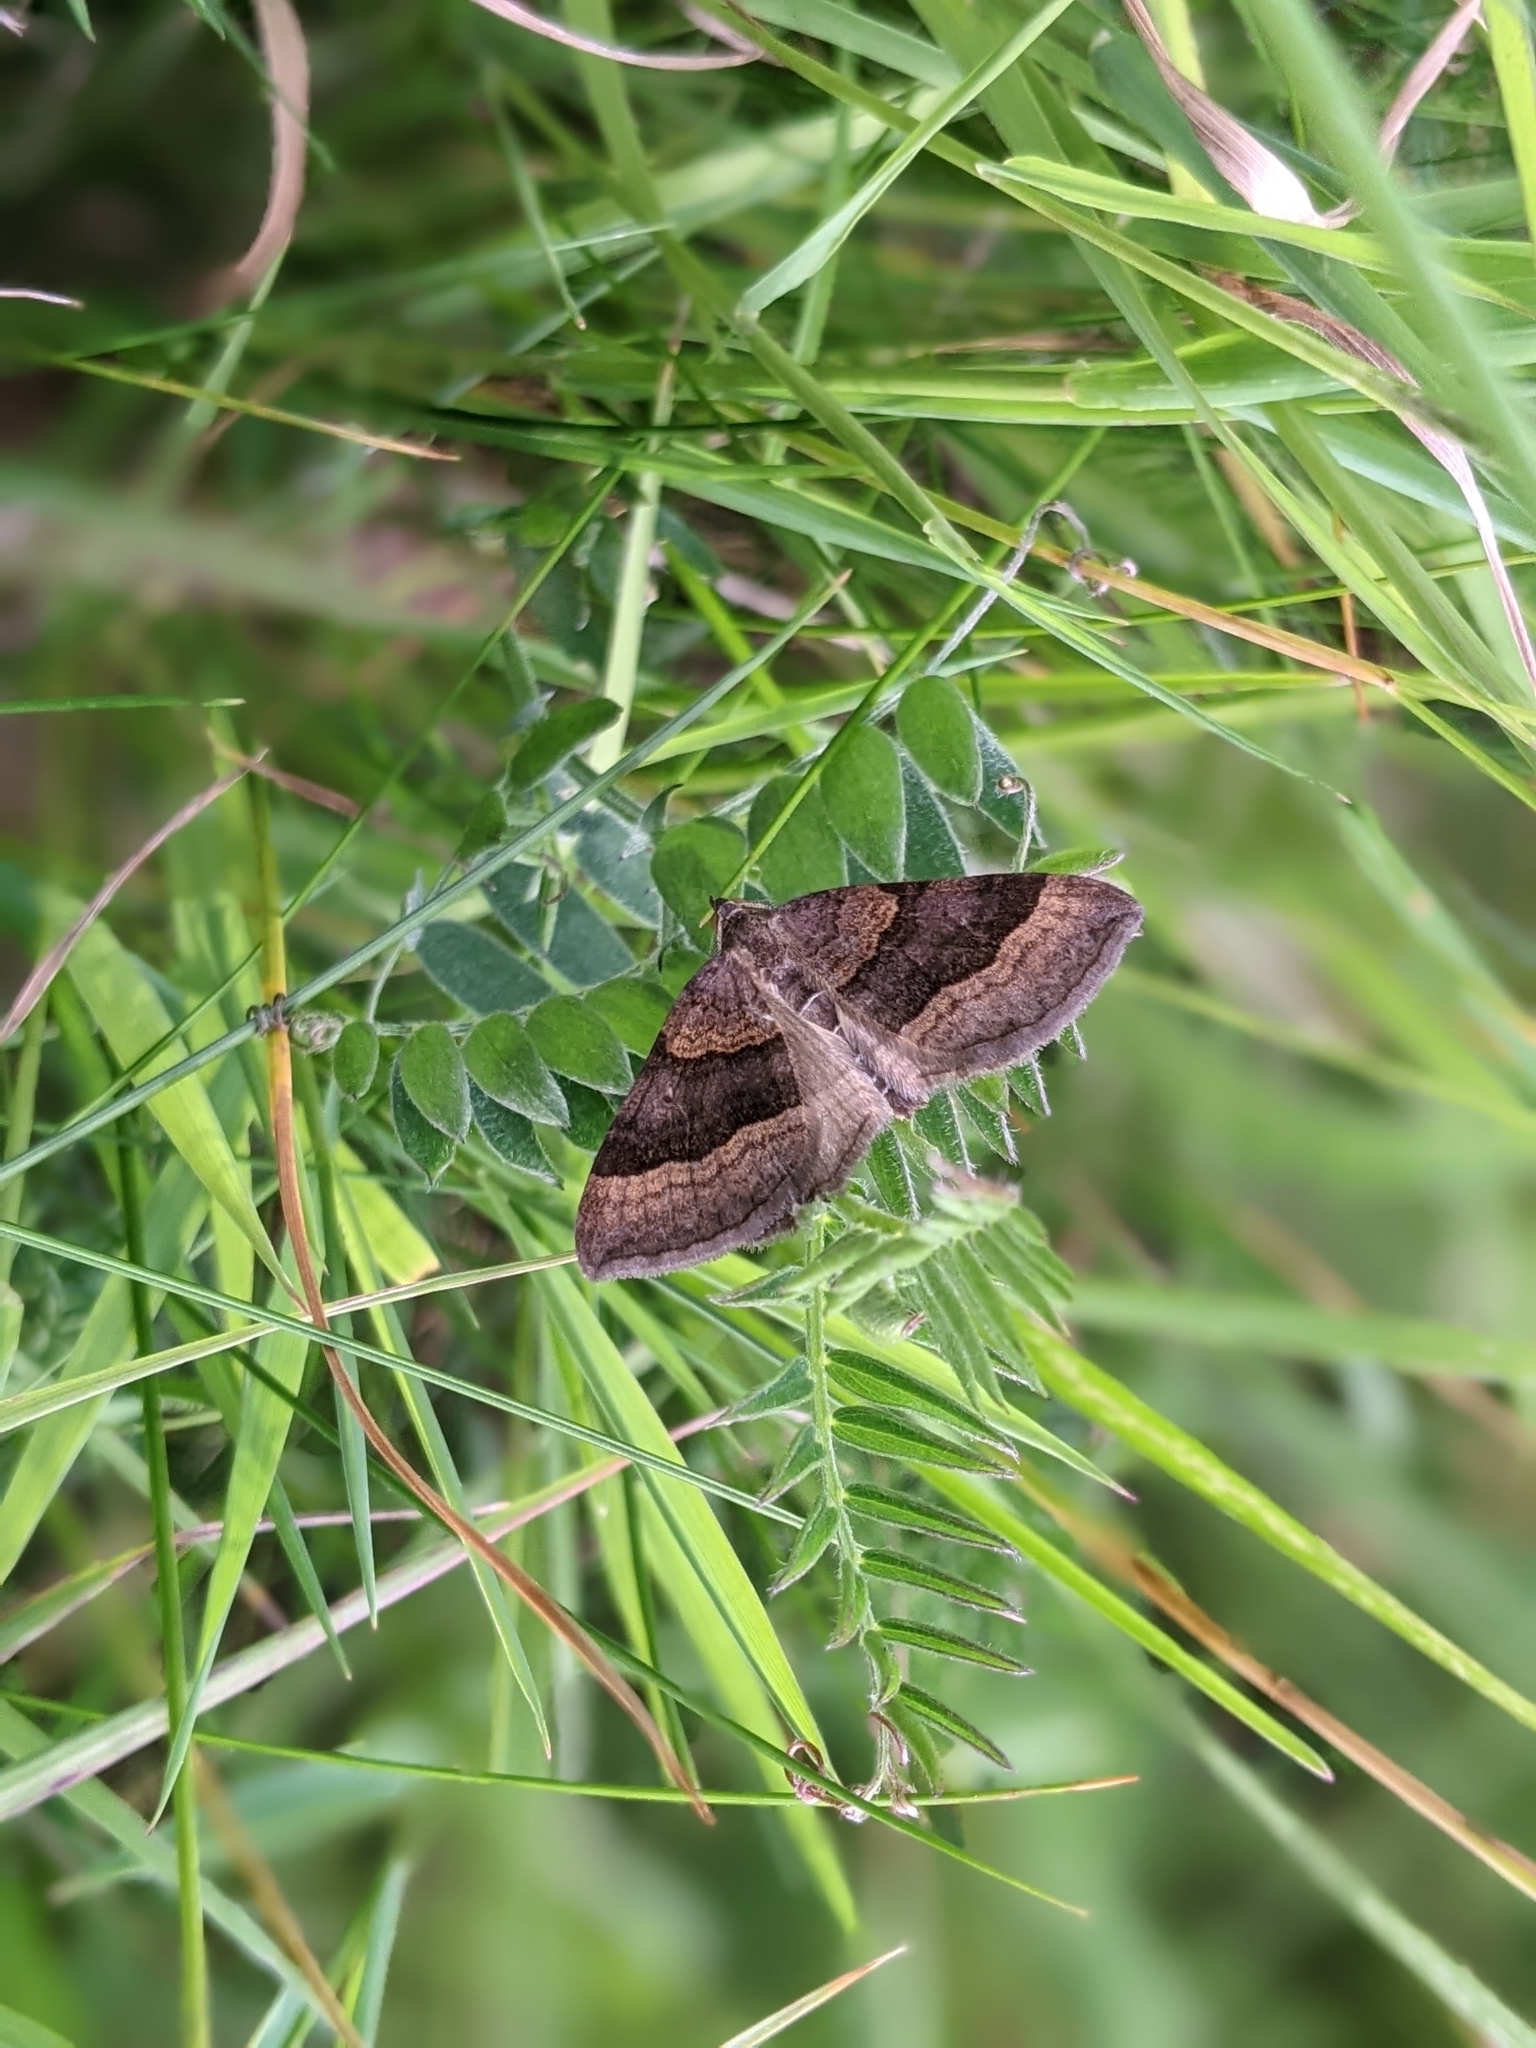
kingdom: Animalia
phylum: Arthropoda
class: Insecta
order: Lepidoptera
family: Geometridae
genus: Scotopteryx
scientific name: Scotopteryx chenopodiata
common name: Shaded broad-bar
